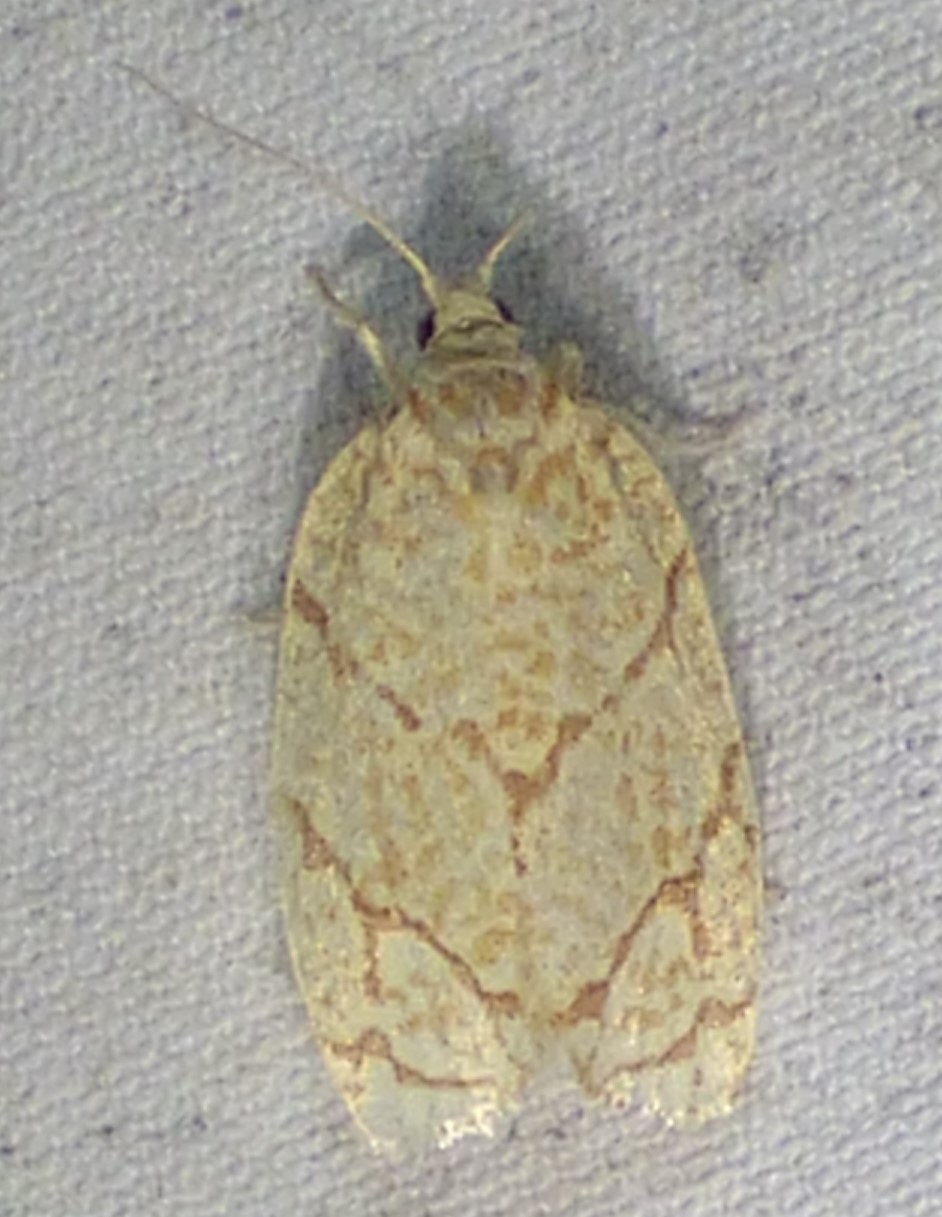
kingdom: Animalia
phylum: Arthropoda
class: Insecta
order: Lepidoptera
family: Tortricidae
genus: Argyrotaenia
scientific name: Argyrotaenia quercifoliana
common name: Yellow-winged oak leafroller moth
